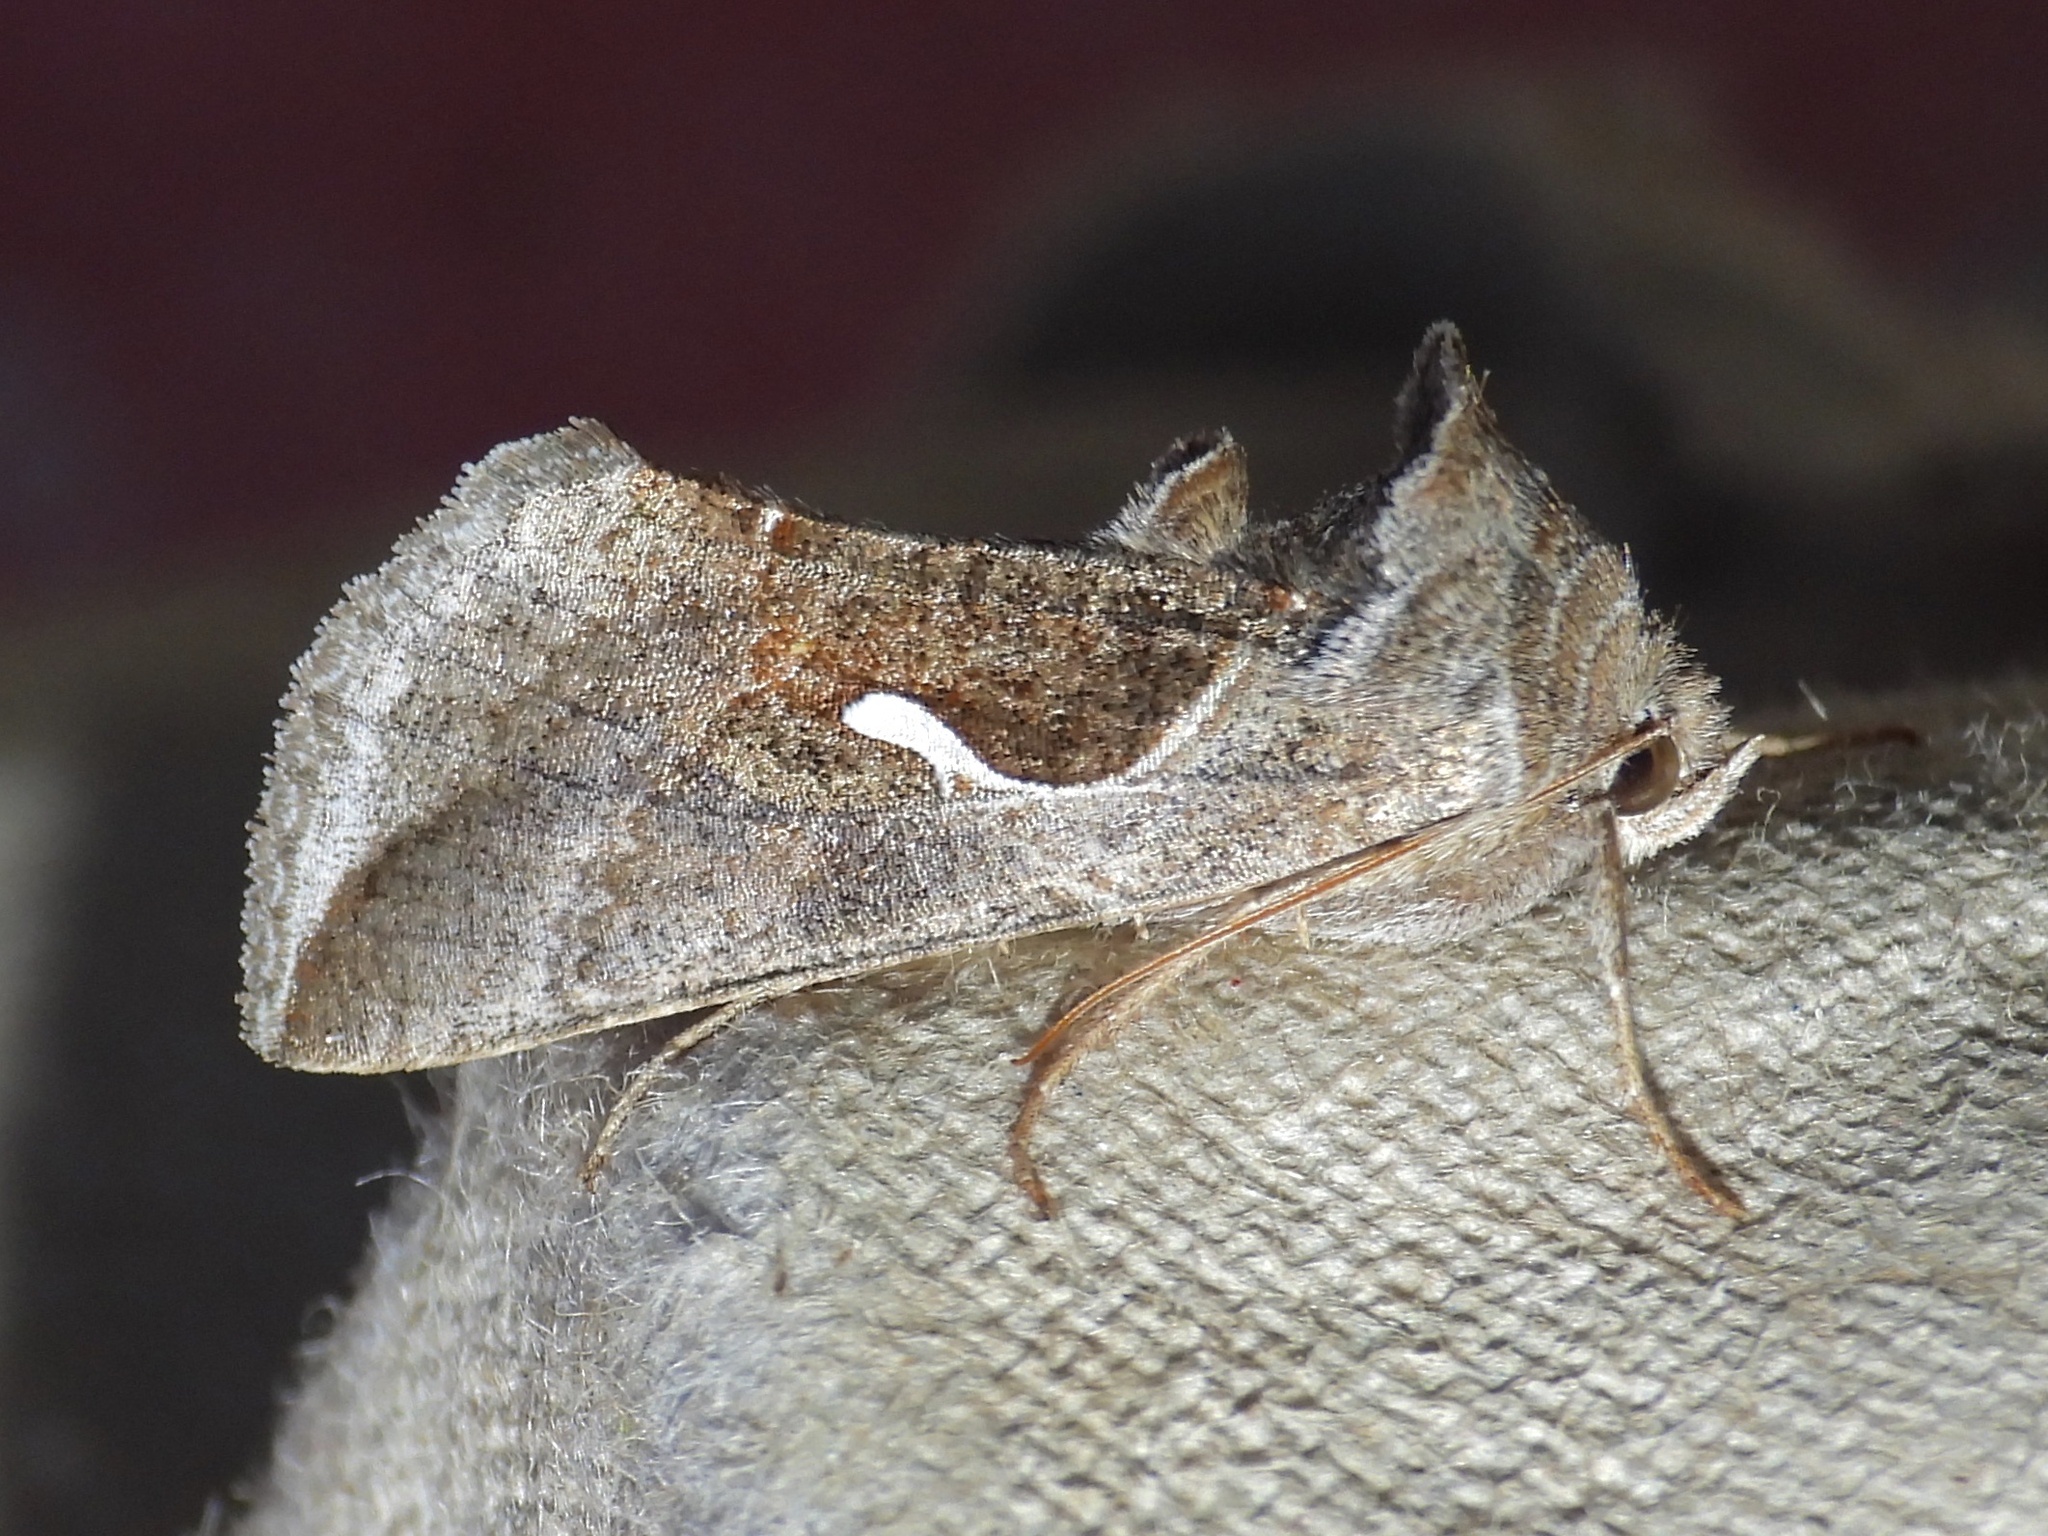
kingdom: Animalia
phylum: Arthropoda
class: Insecta
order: Lepidoptera
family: Noctuidae
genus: Anagrapha
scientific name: Anagrapha falcifera
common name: Celery looper
